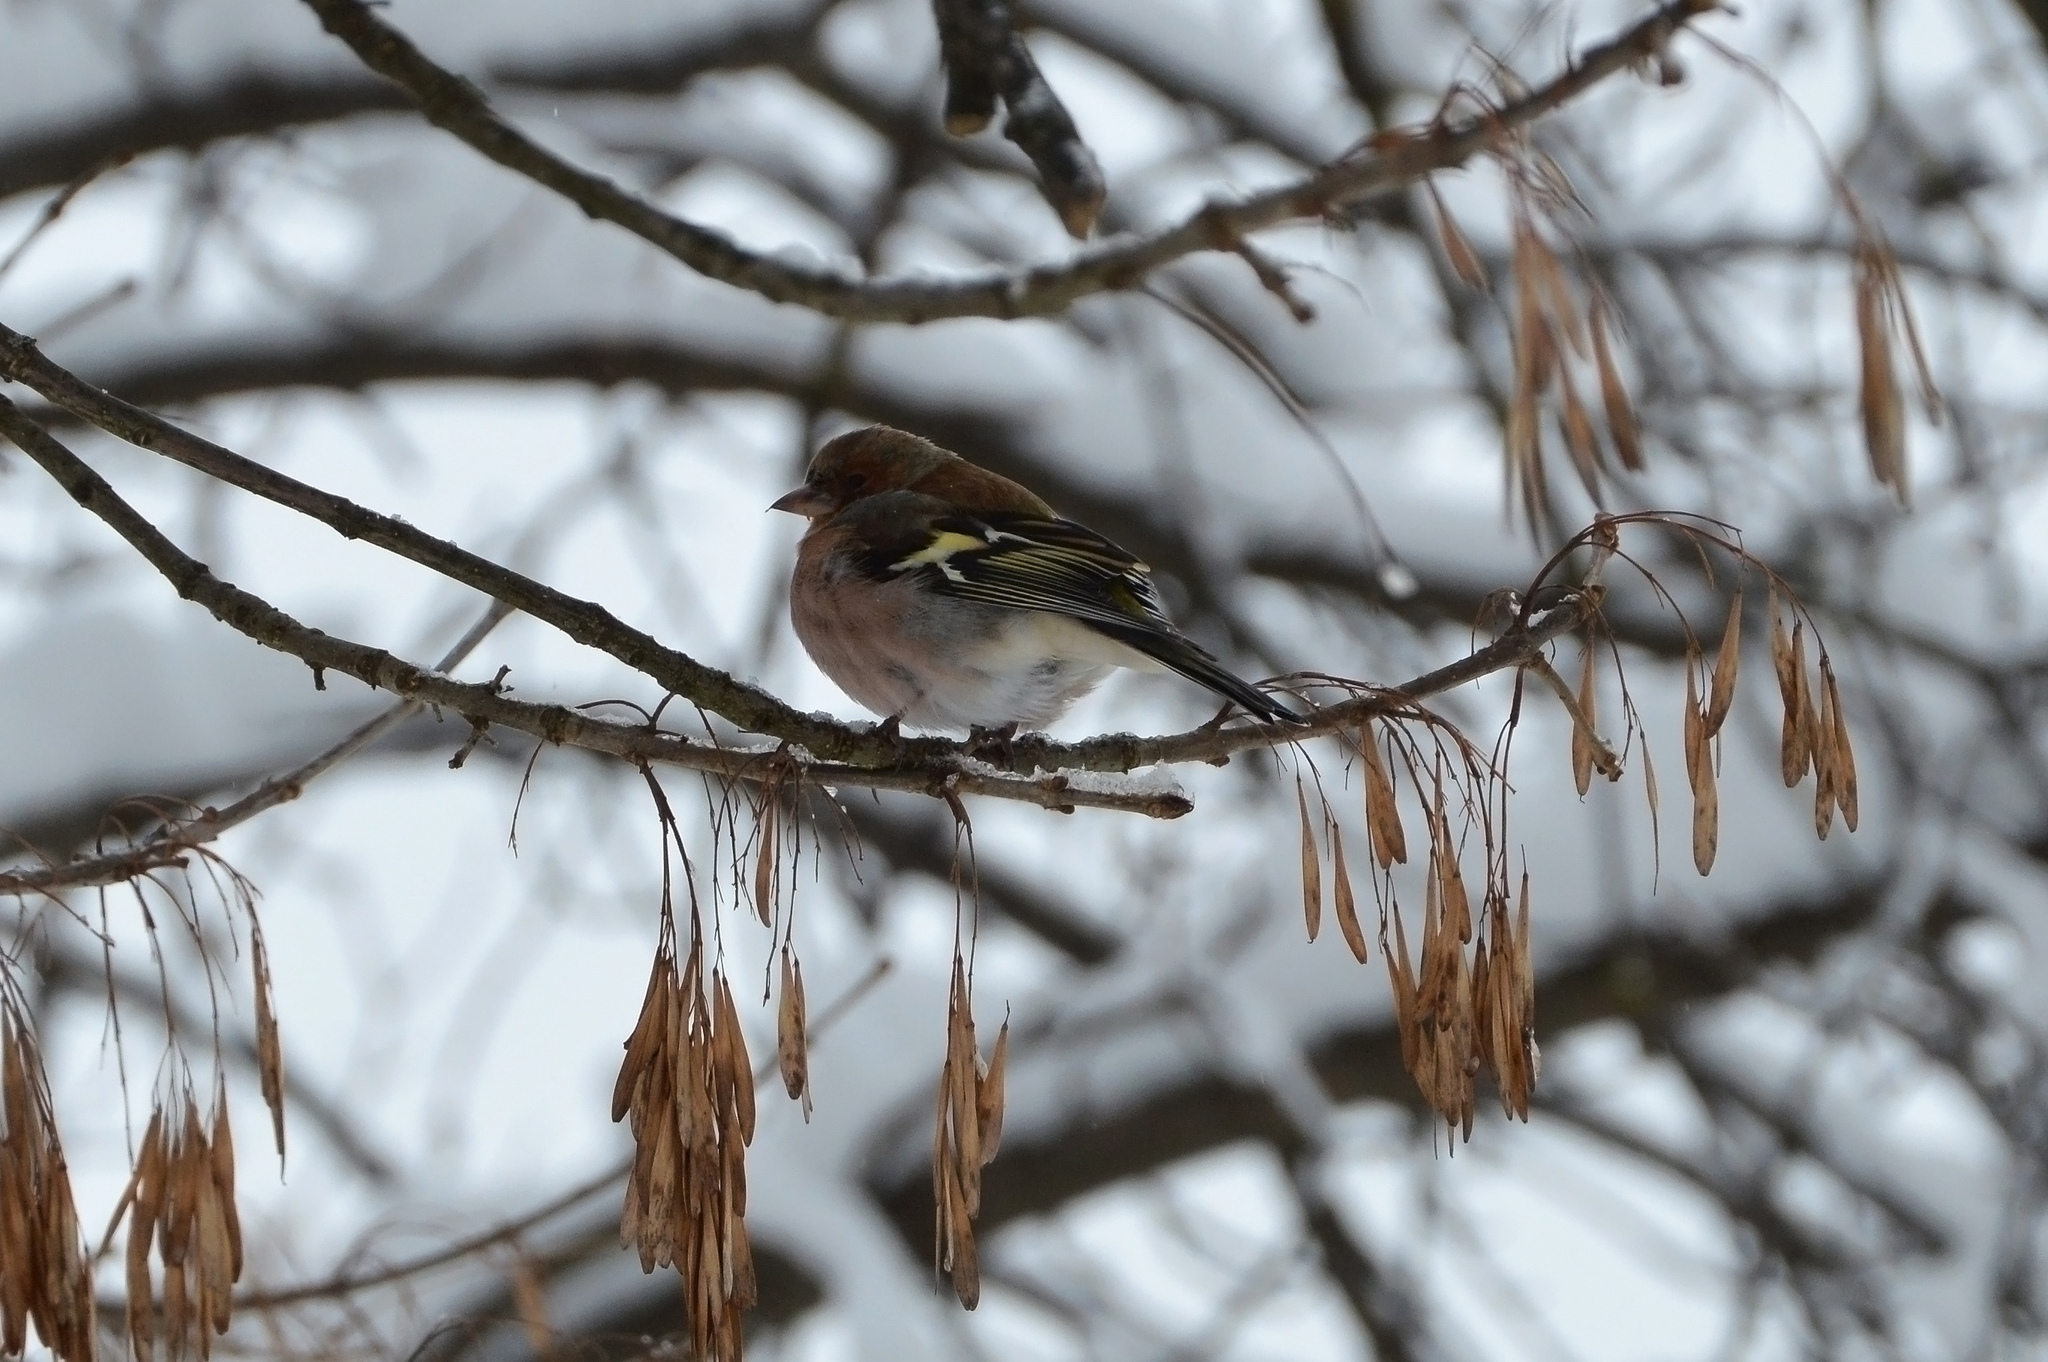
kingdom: Animalia
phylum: Chordata
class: Aves
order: Passeriformes
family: Fringillidae
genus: Fringilla
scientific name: Fringilla coelebs
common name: Common chaffinch
